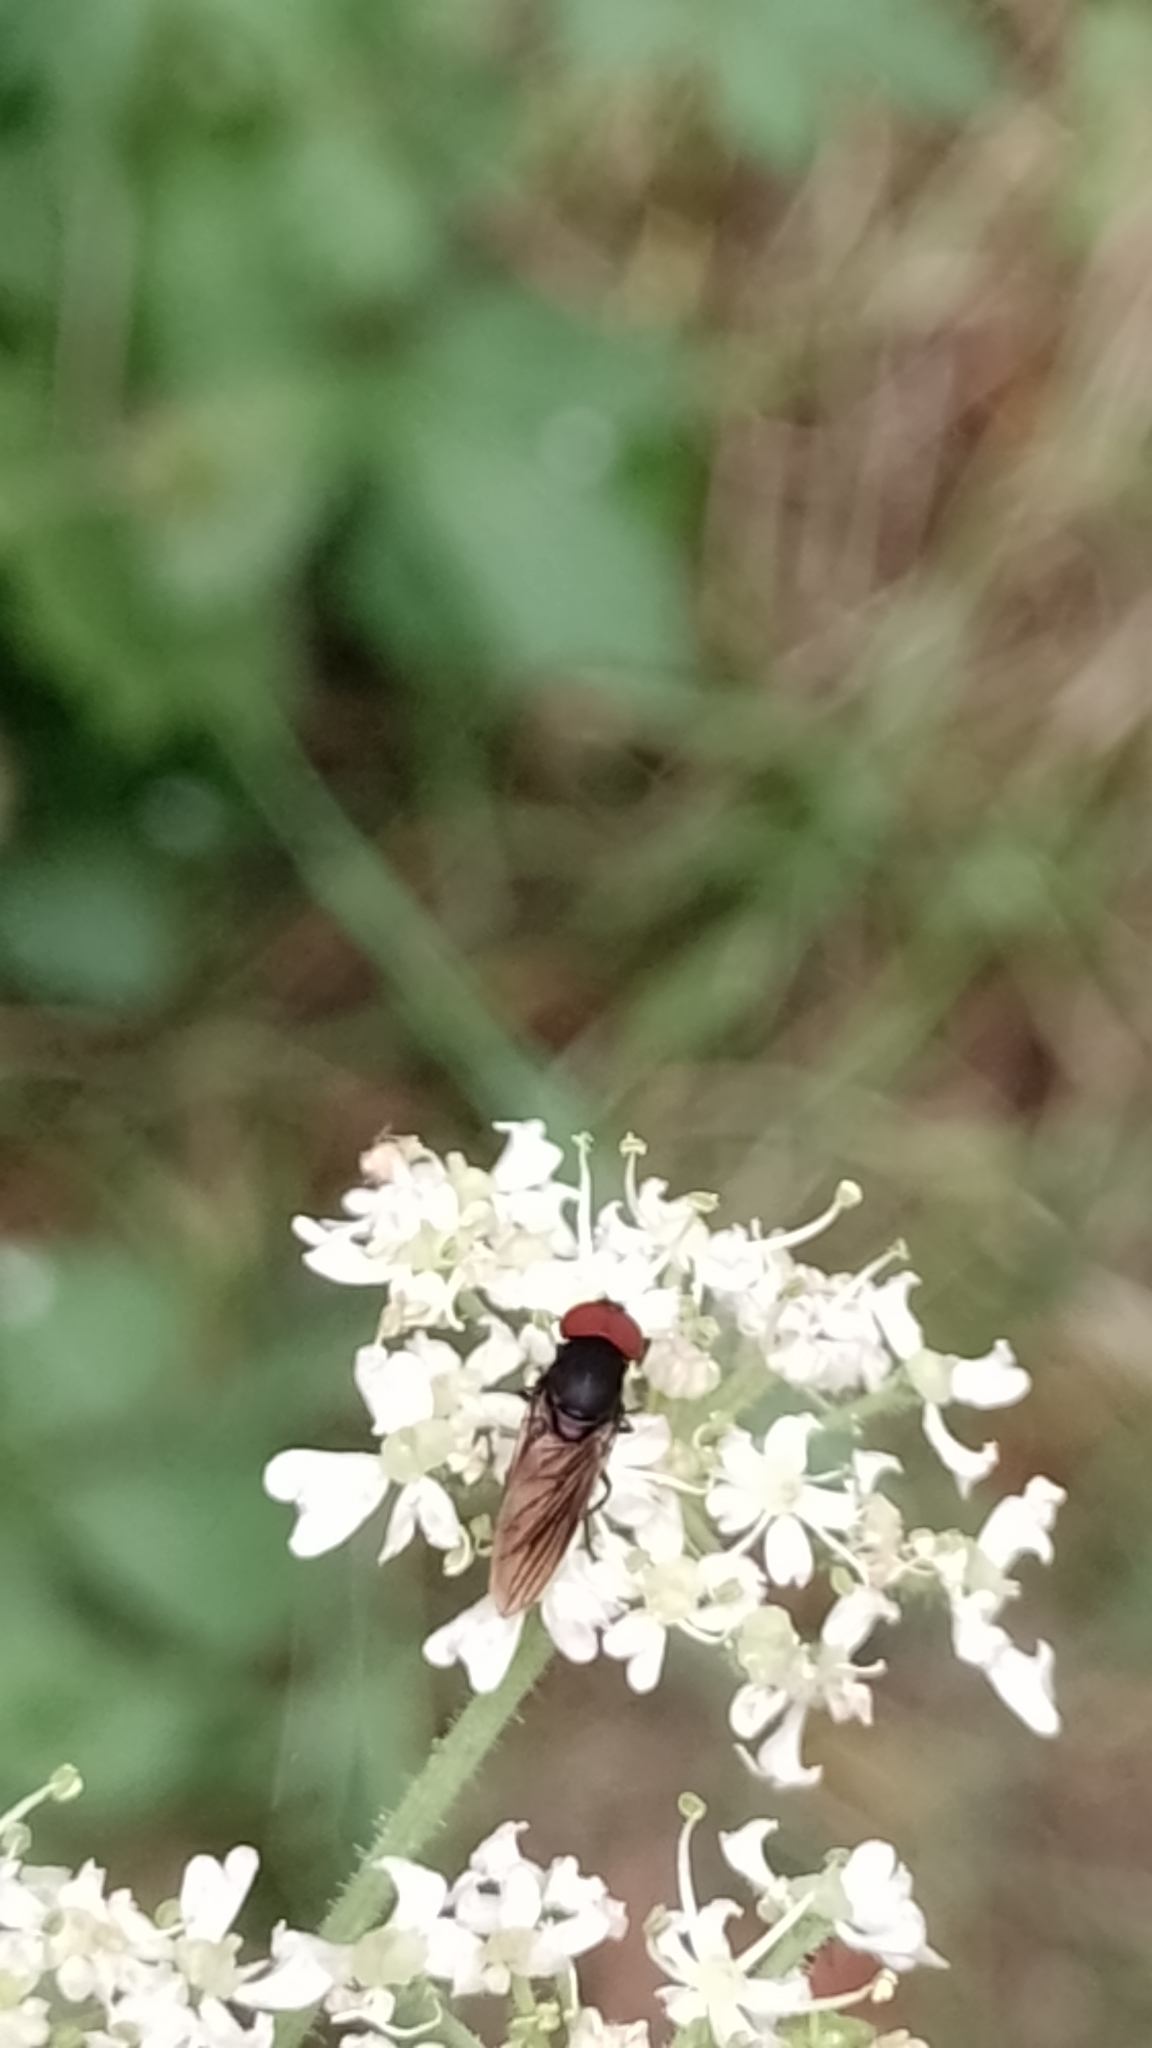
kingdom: Animalia
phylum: Arthropoda
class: Insecta
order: Diptera
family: Syrphidae
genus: Chrysogaster
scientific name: Chrysogaster solstitialis
